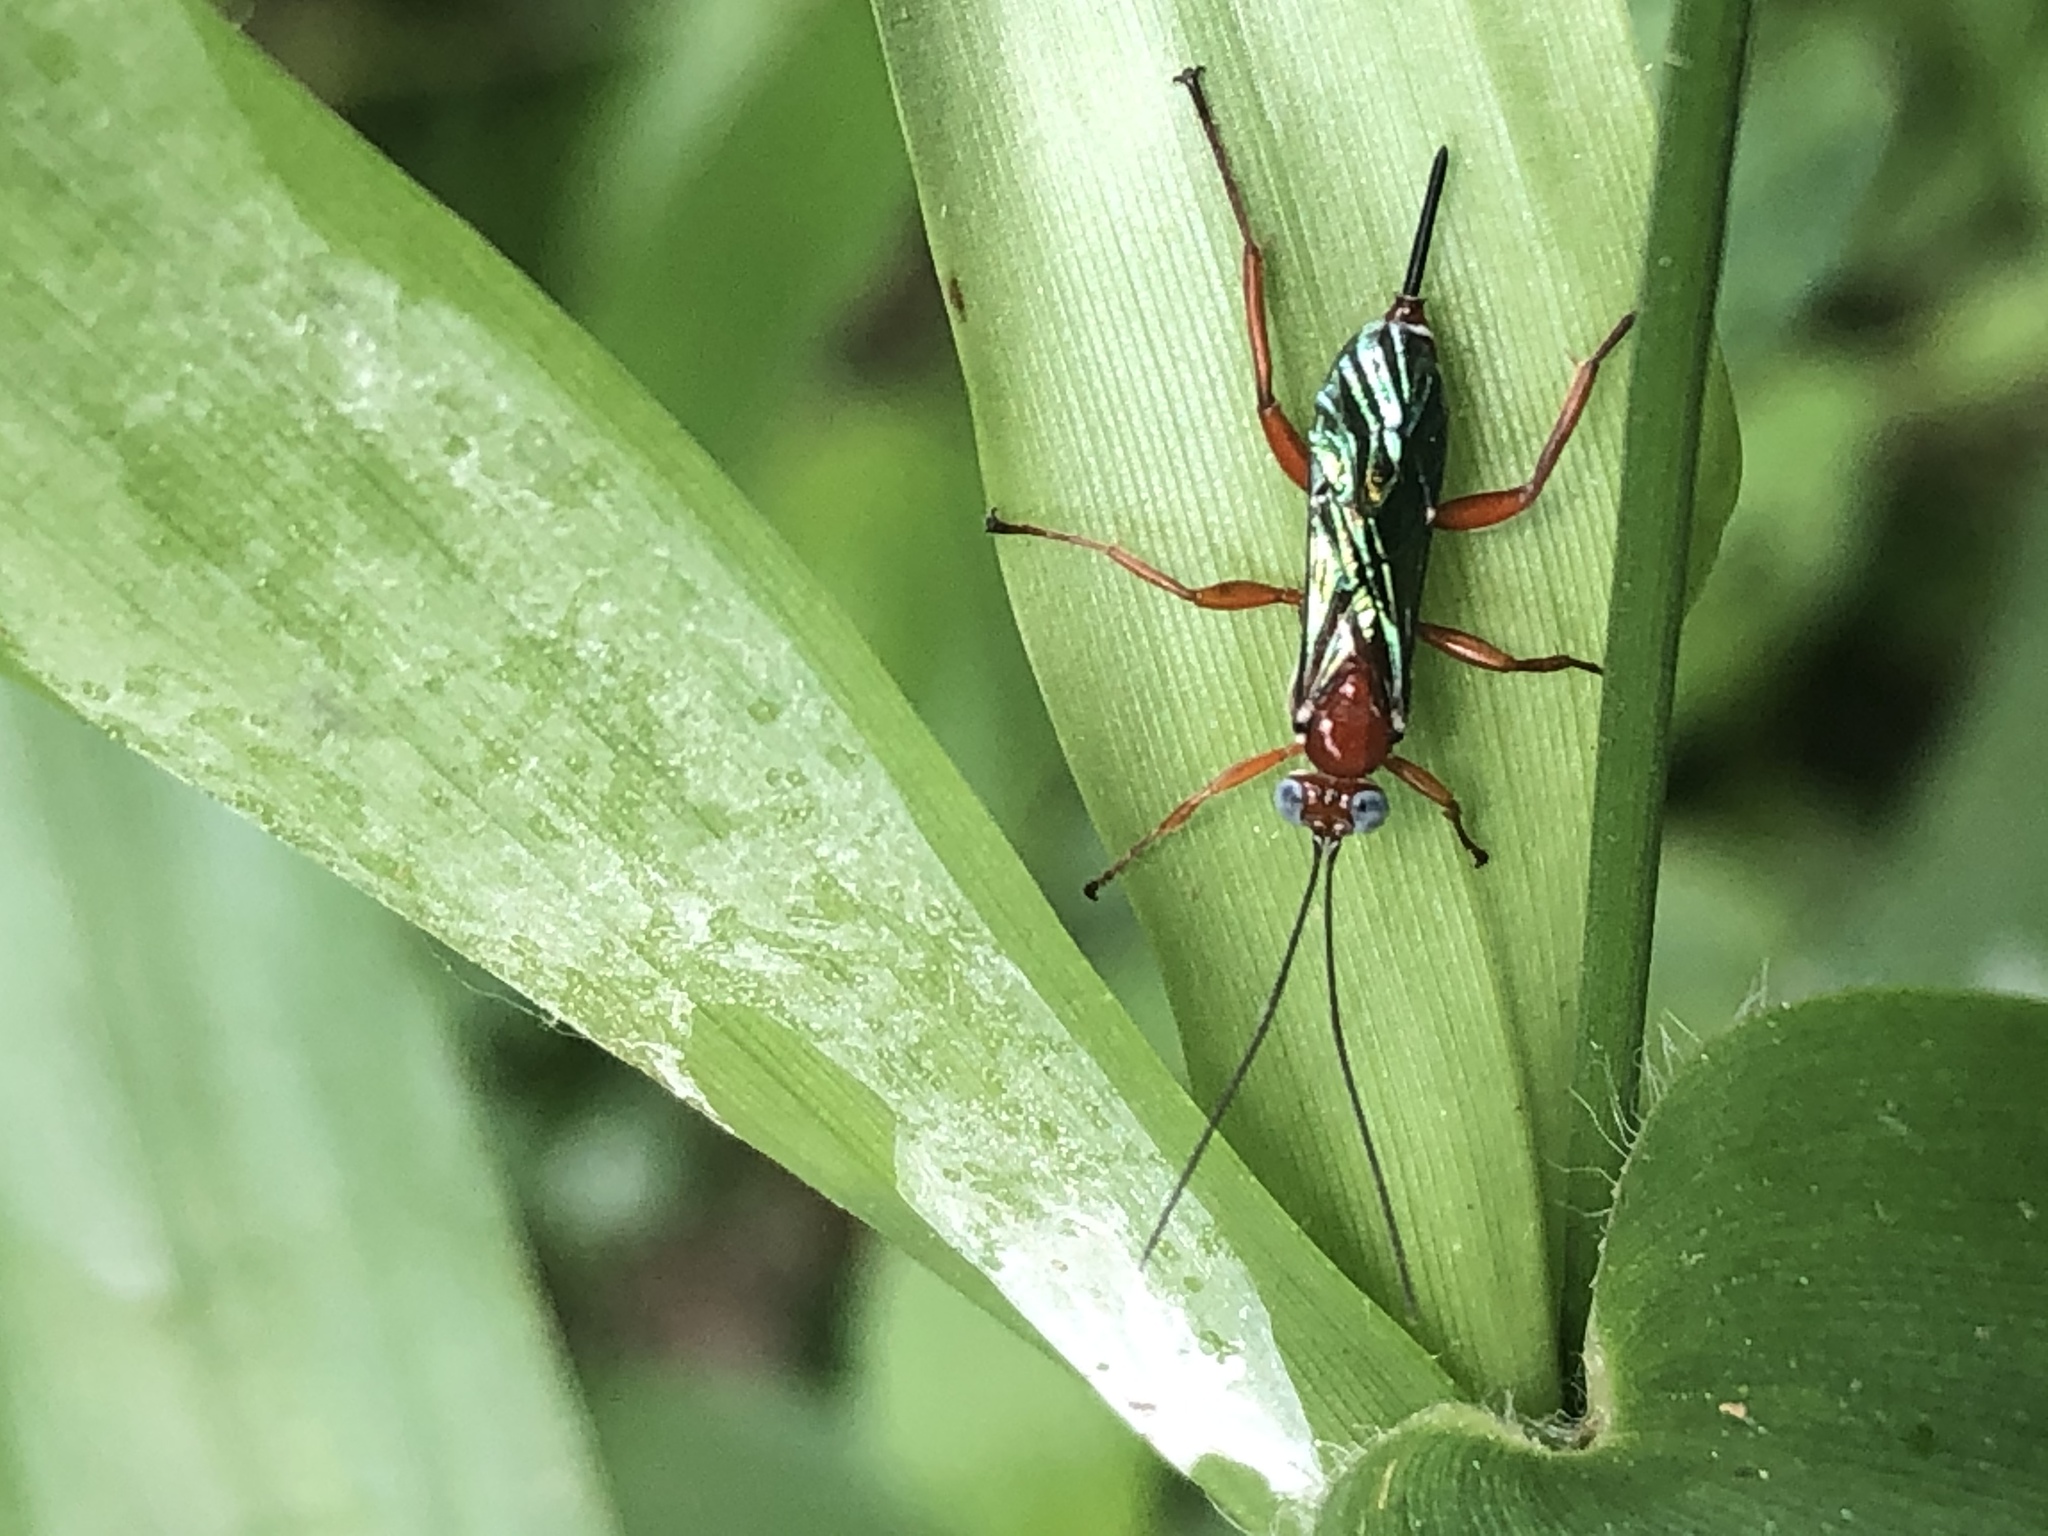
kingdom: Animalia
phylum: Arthropoda
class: Insecta
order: Hymenoptera
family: Ichneumonidae
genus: Pimpla
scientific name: Pimpla marginella
